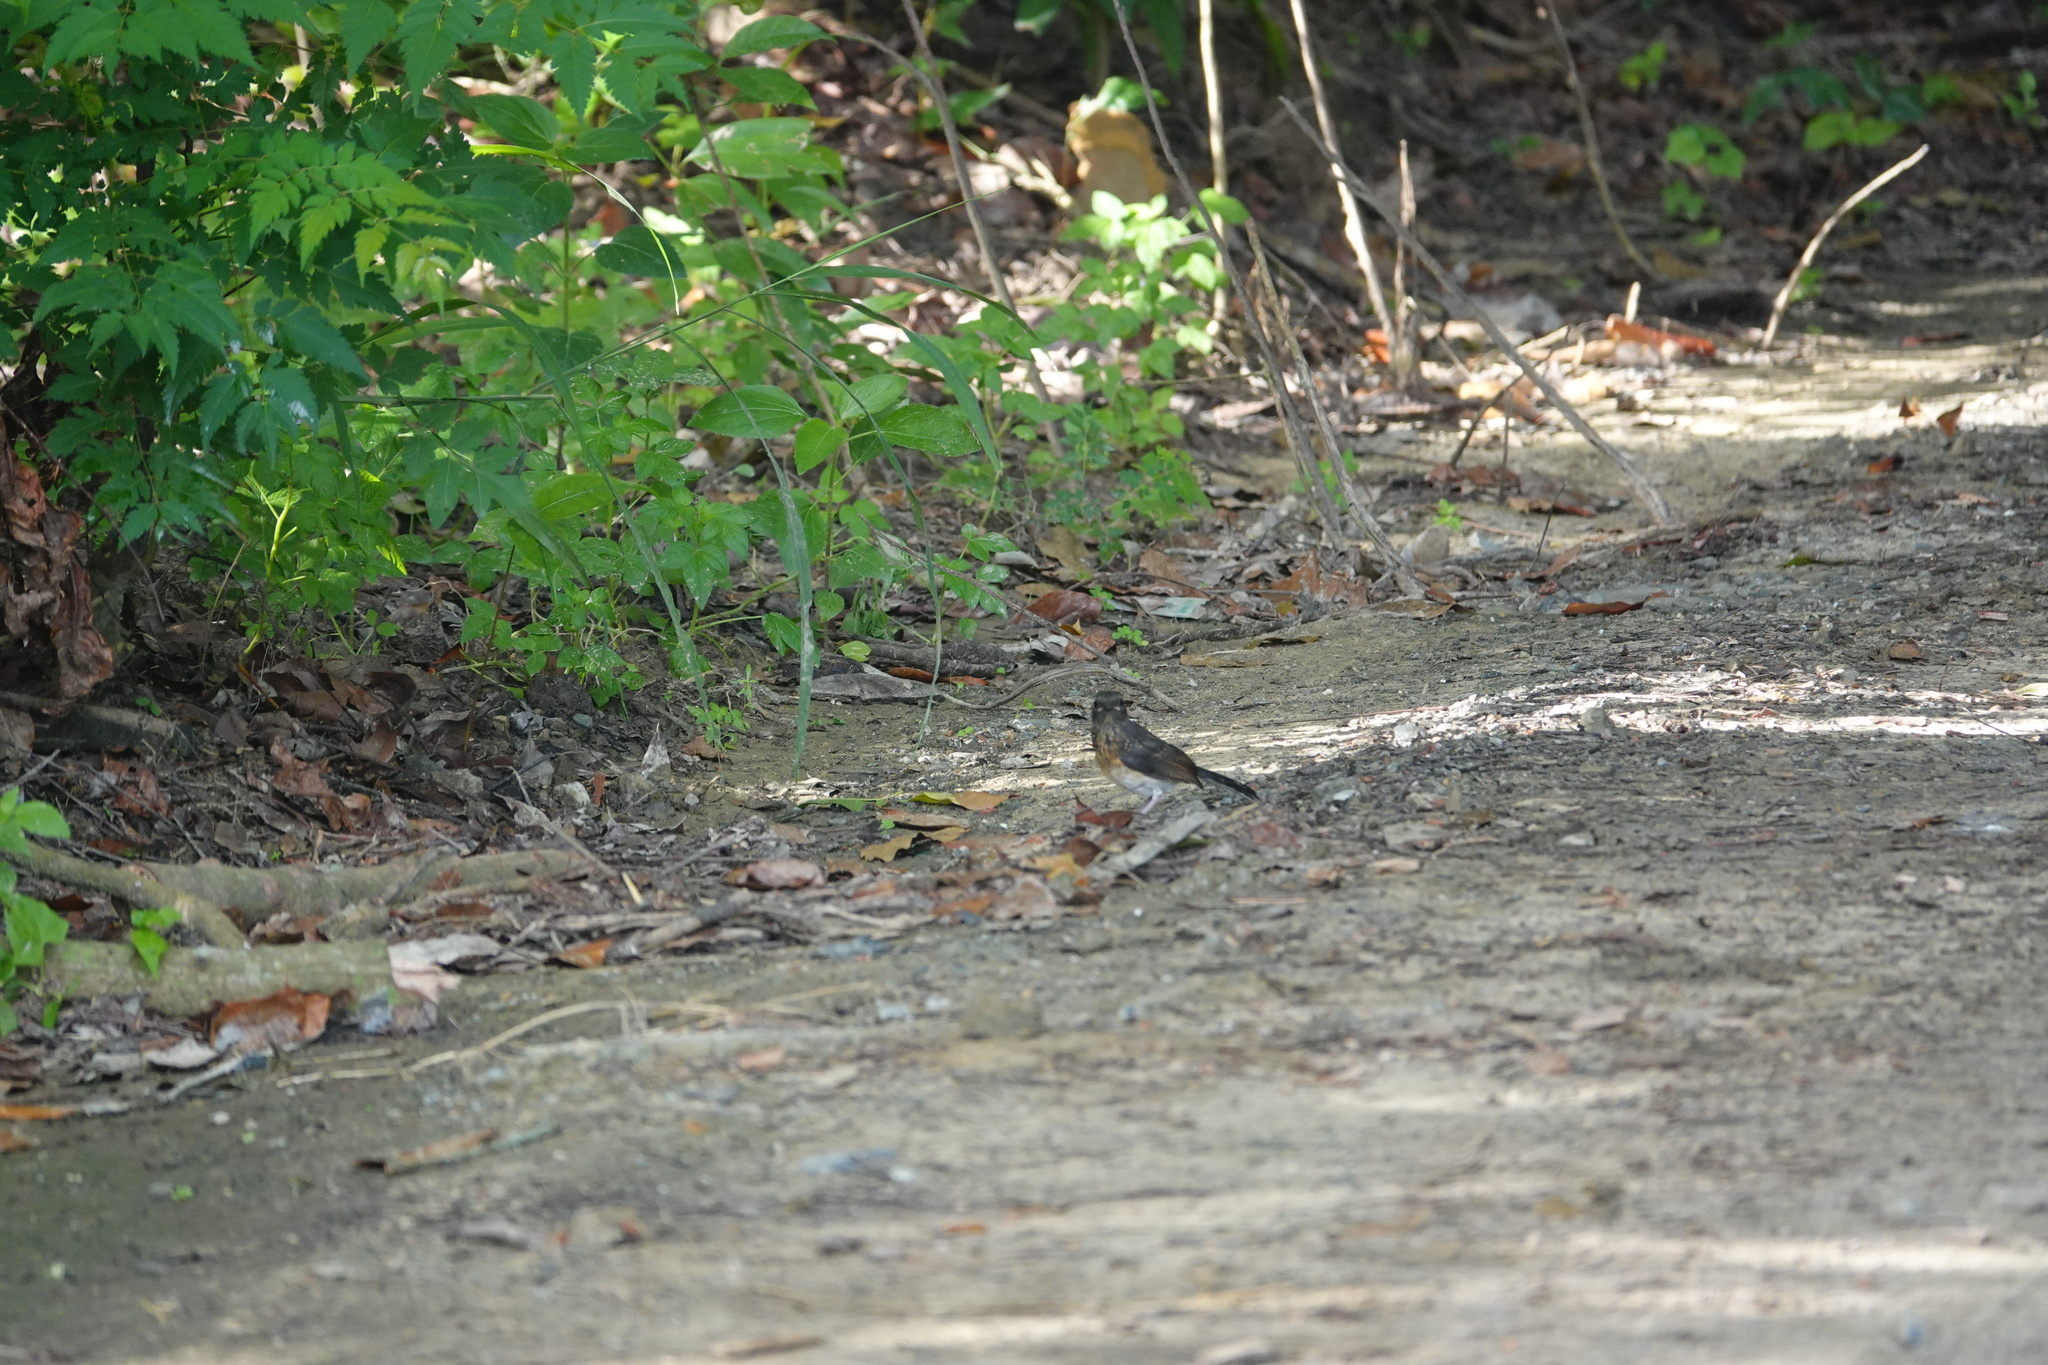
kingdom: Animalia
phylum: Chordata
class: Aves
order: Passeriformes
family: Muscicapidae
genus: Copsychus
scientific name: Copsychus malabaricus
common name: White-rumped shama
